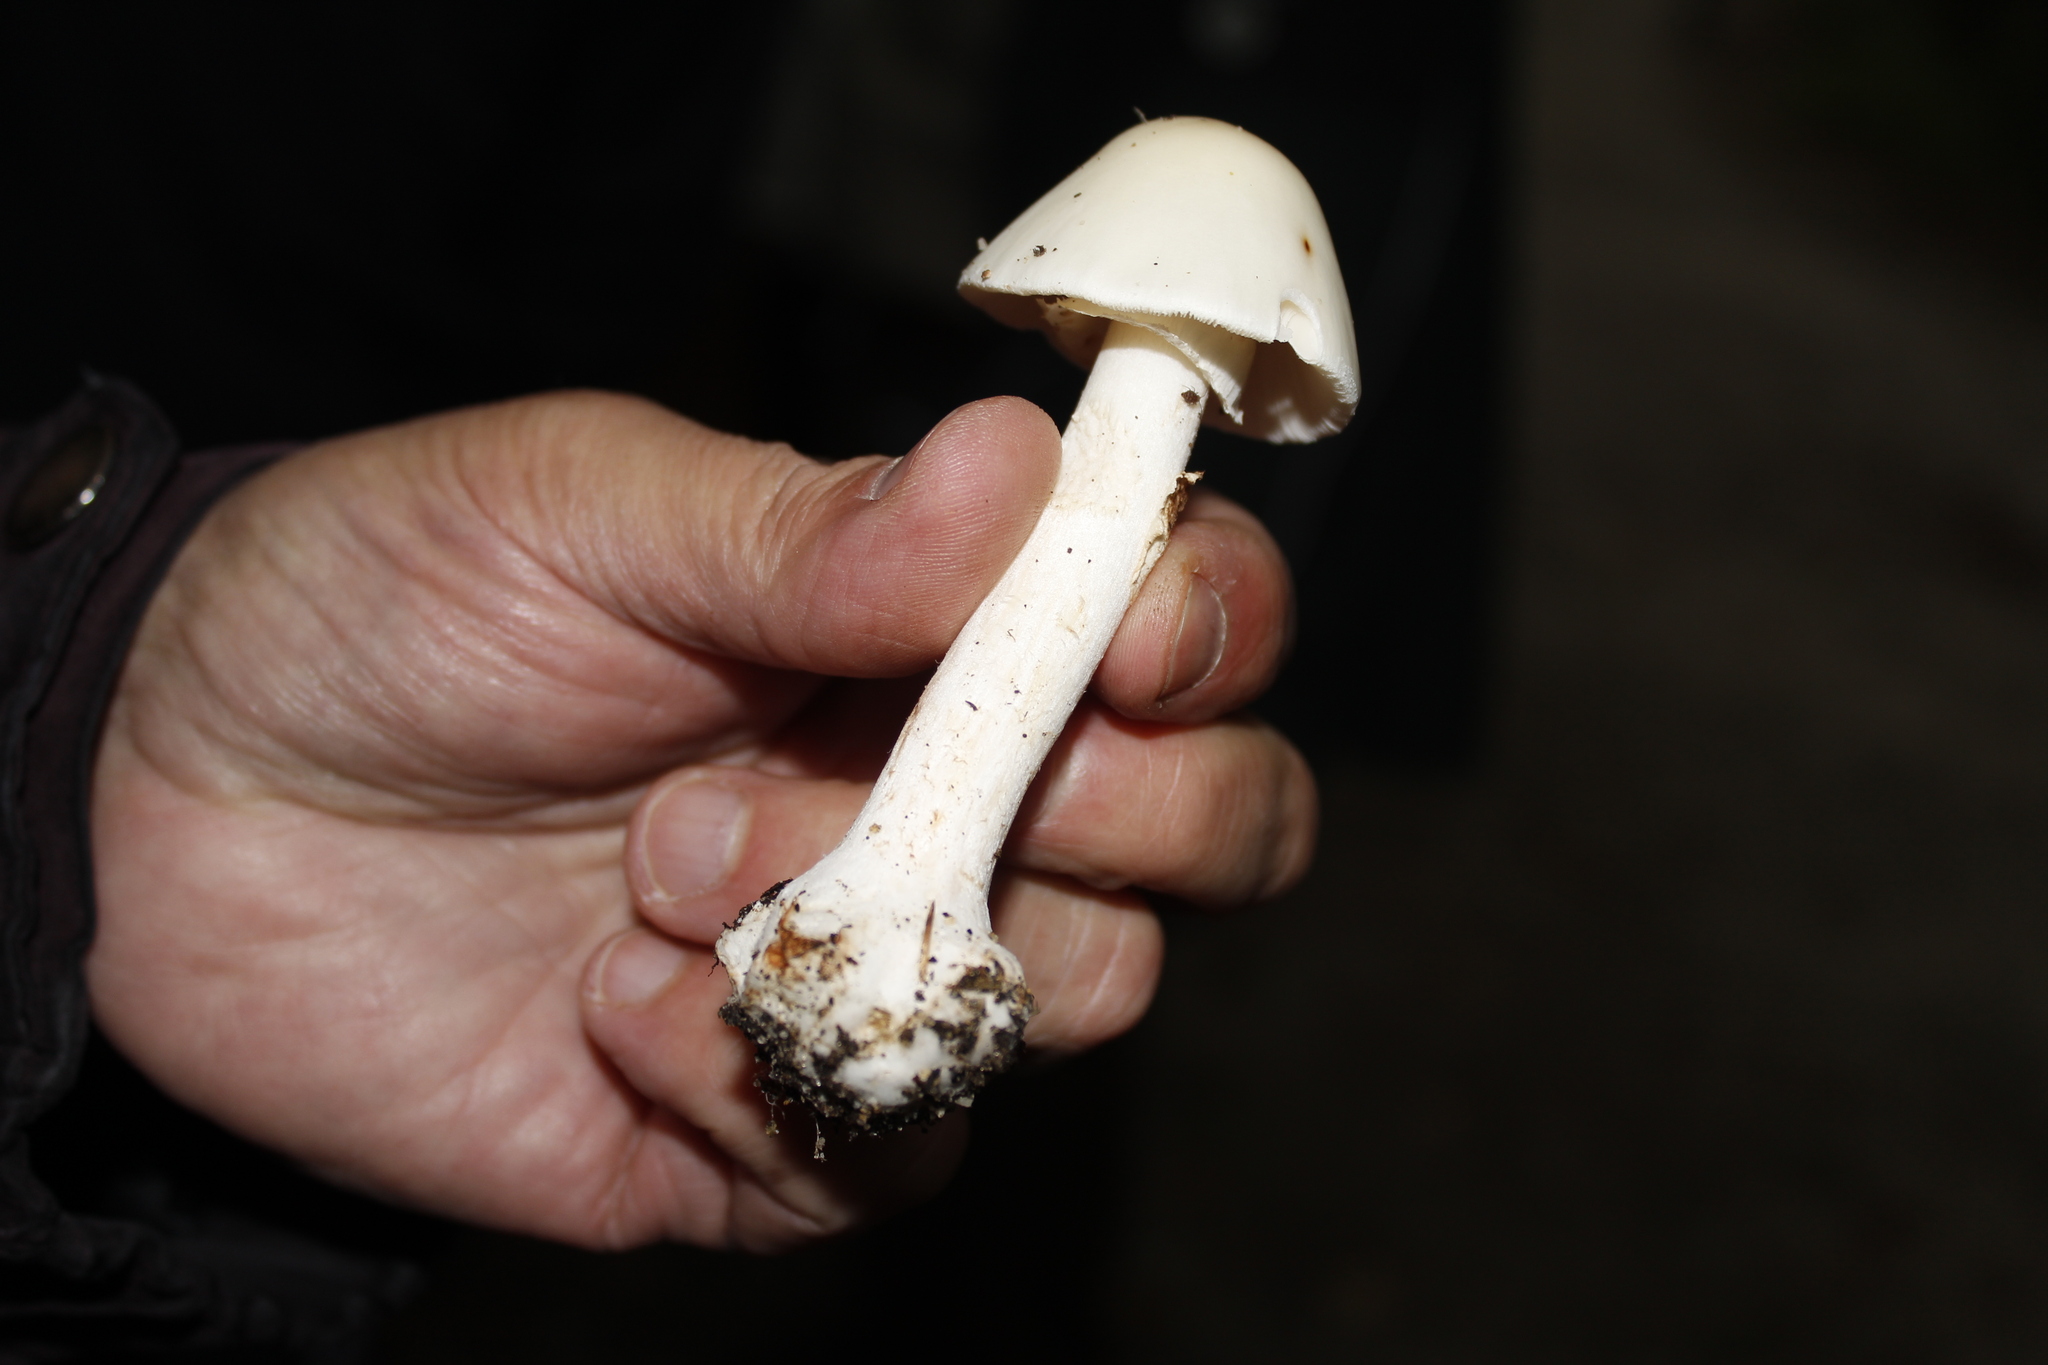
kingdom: Fungi
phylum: Basidiomycota
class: Agaricomycetes
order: Agaricales
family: Amanitaceae
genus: Amanita
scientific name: Amanita brunnescens
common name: Brown american star-footed amanita
